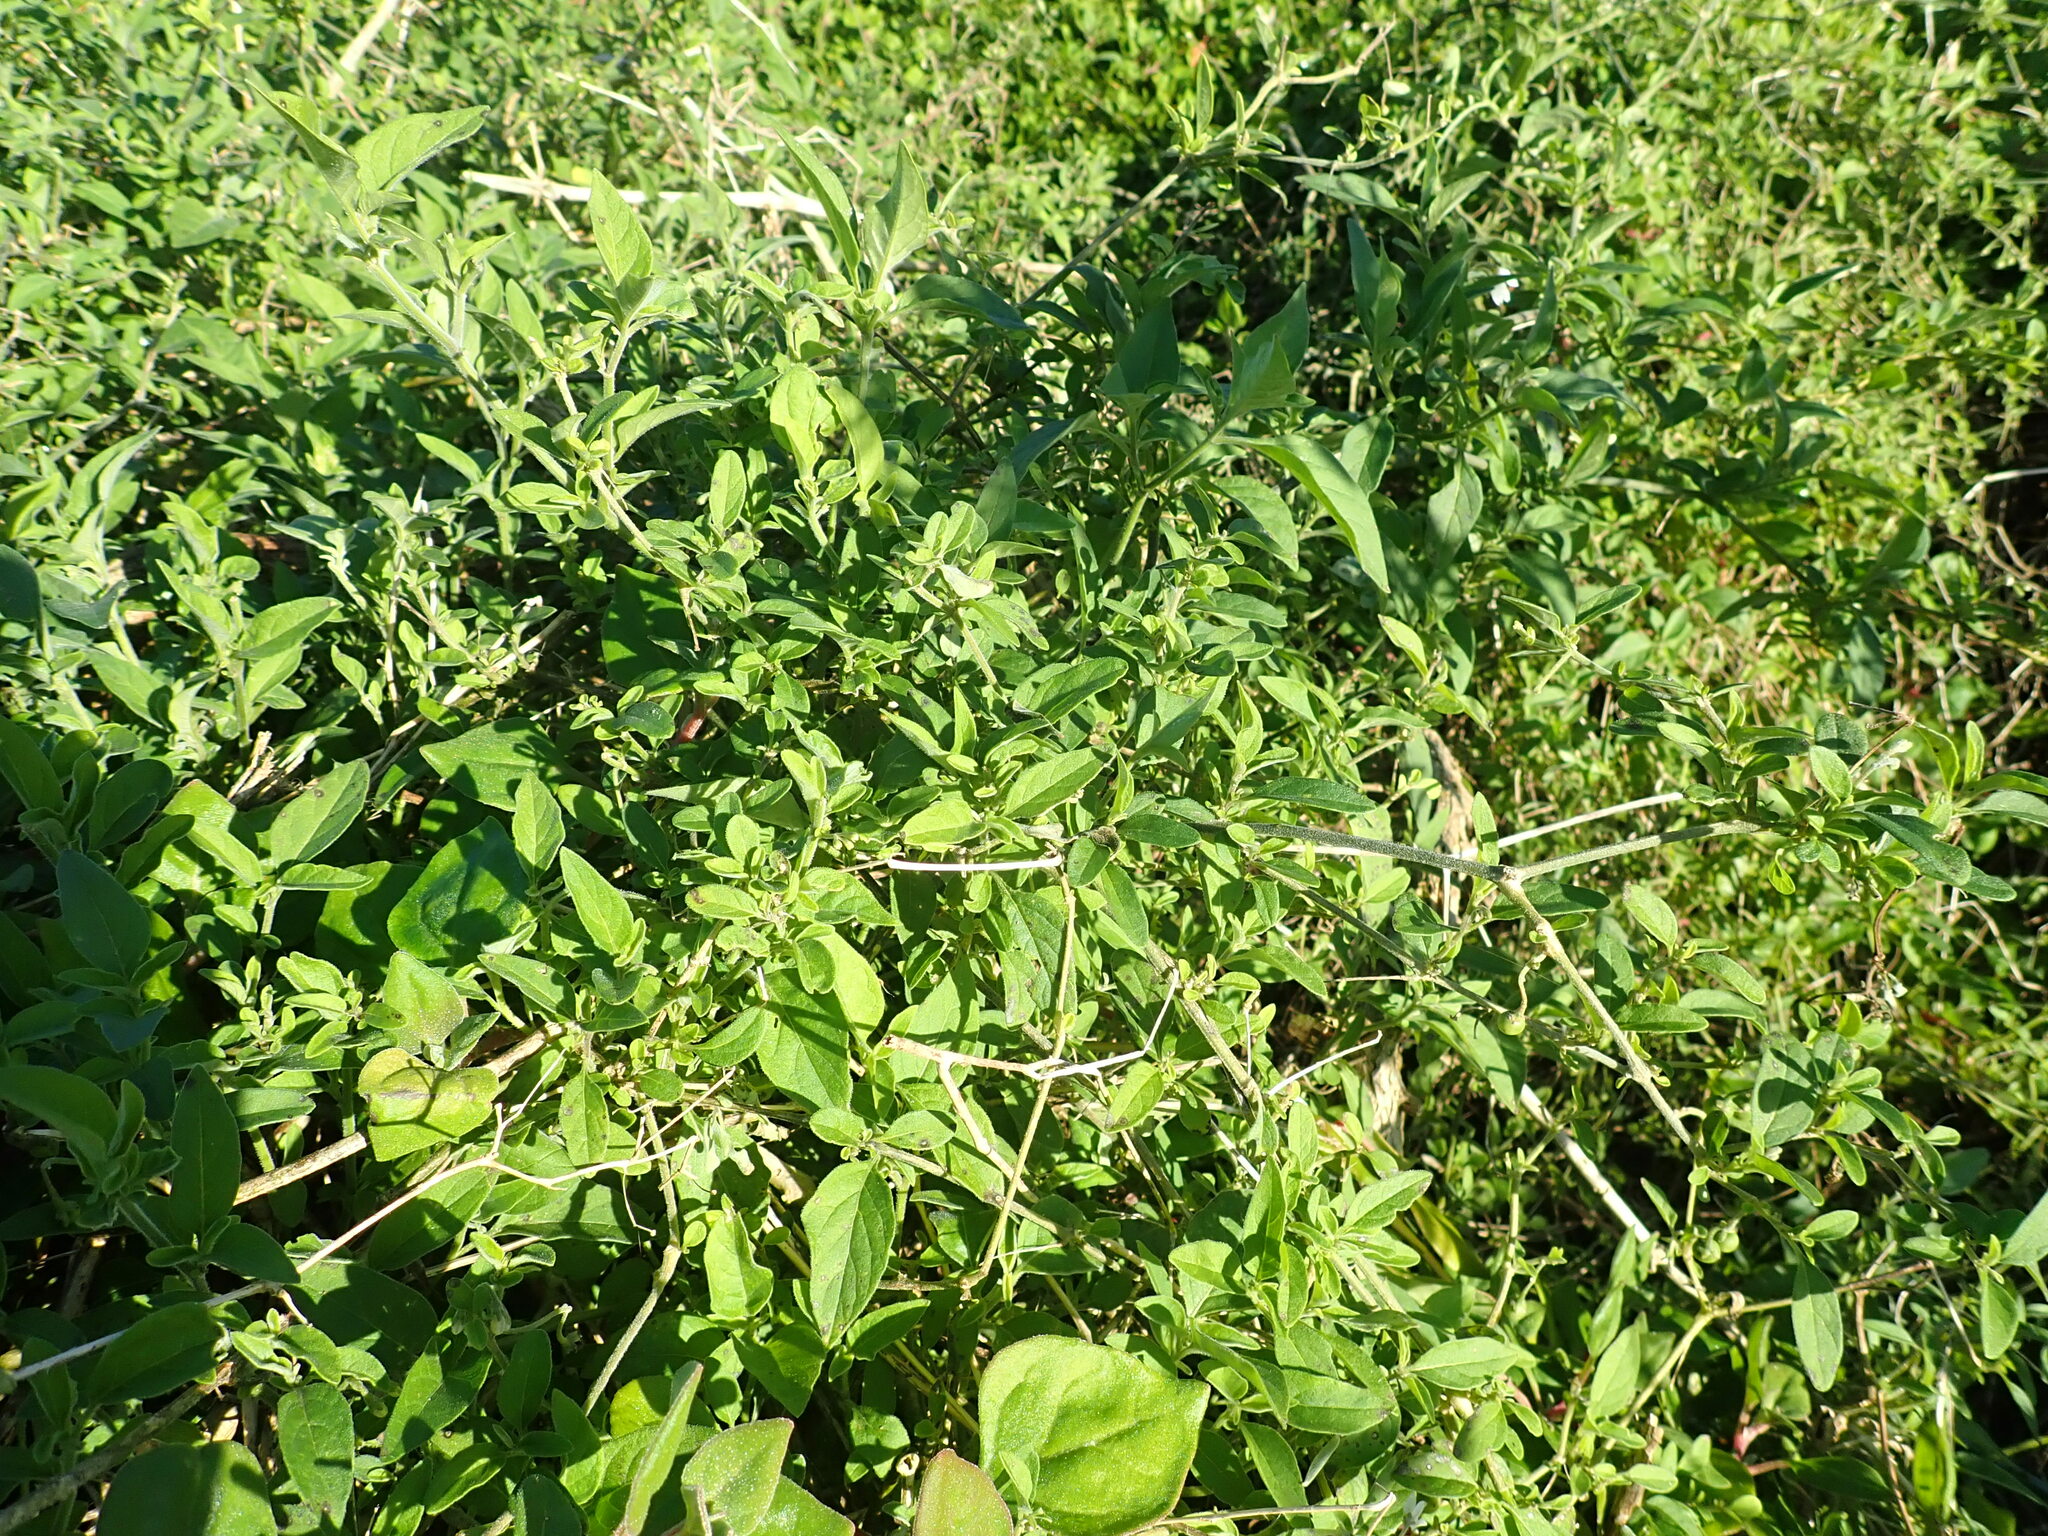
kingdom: Plantae
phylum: Tracheophyta
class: Magnoliopsida
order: Solanales
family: Solanaceae
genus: Solanum
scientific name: Solanum chenopodioides
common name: Tall nightshade
